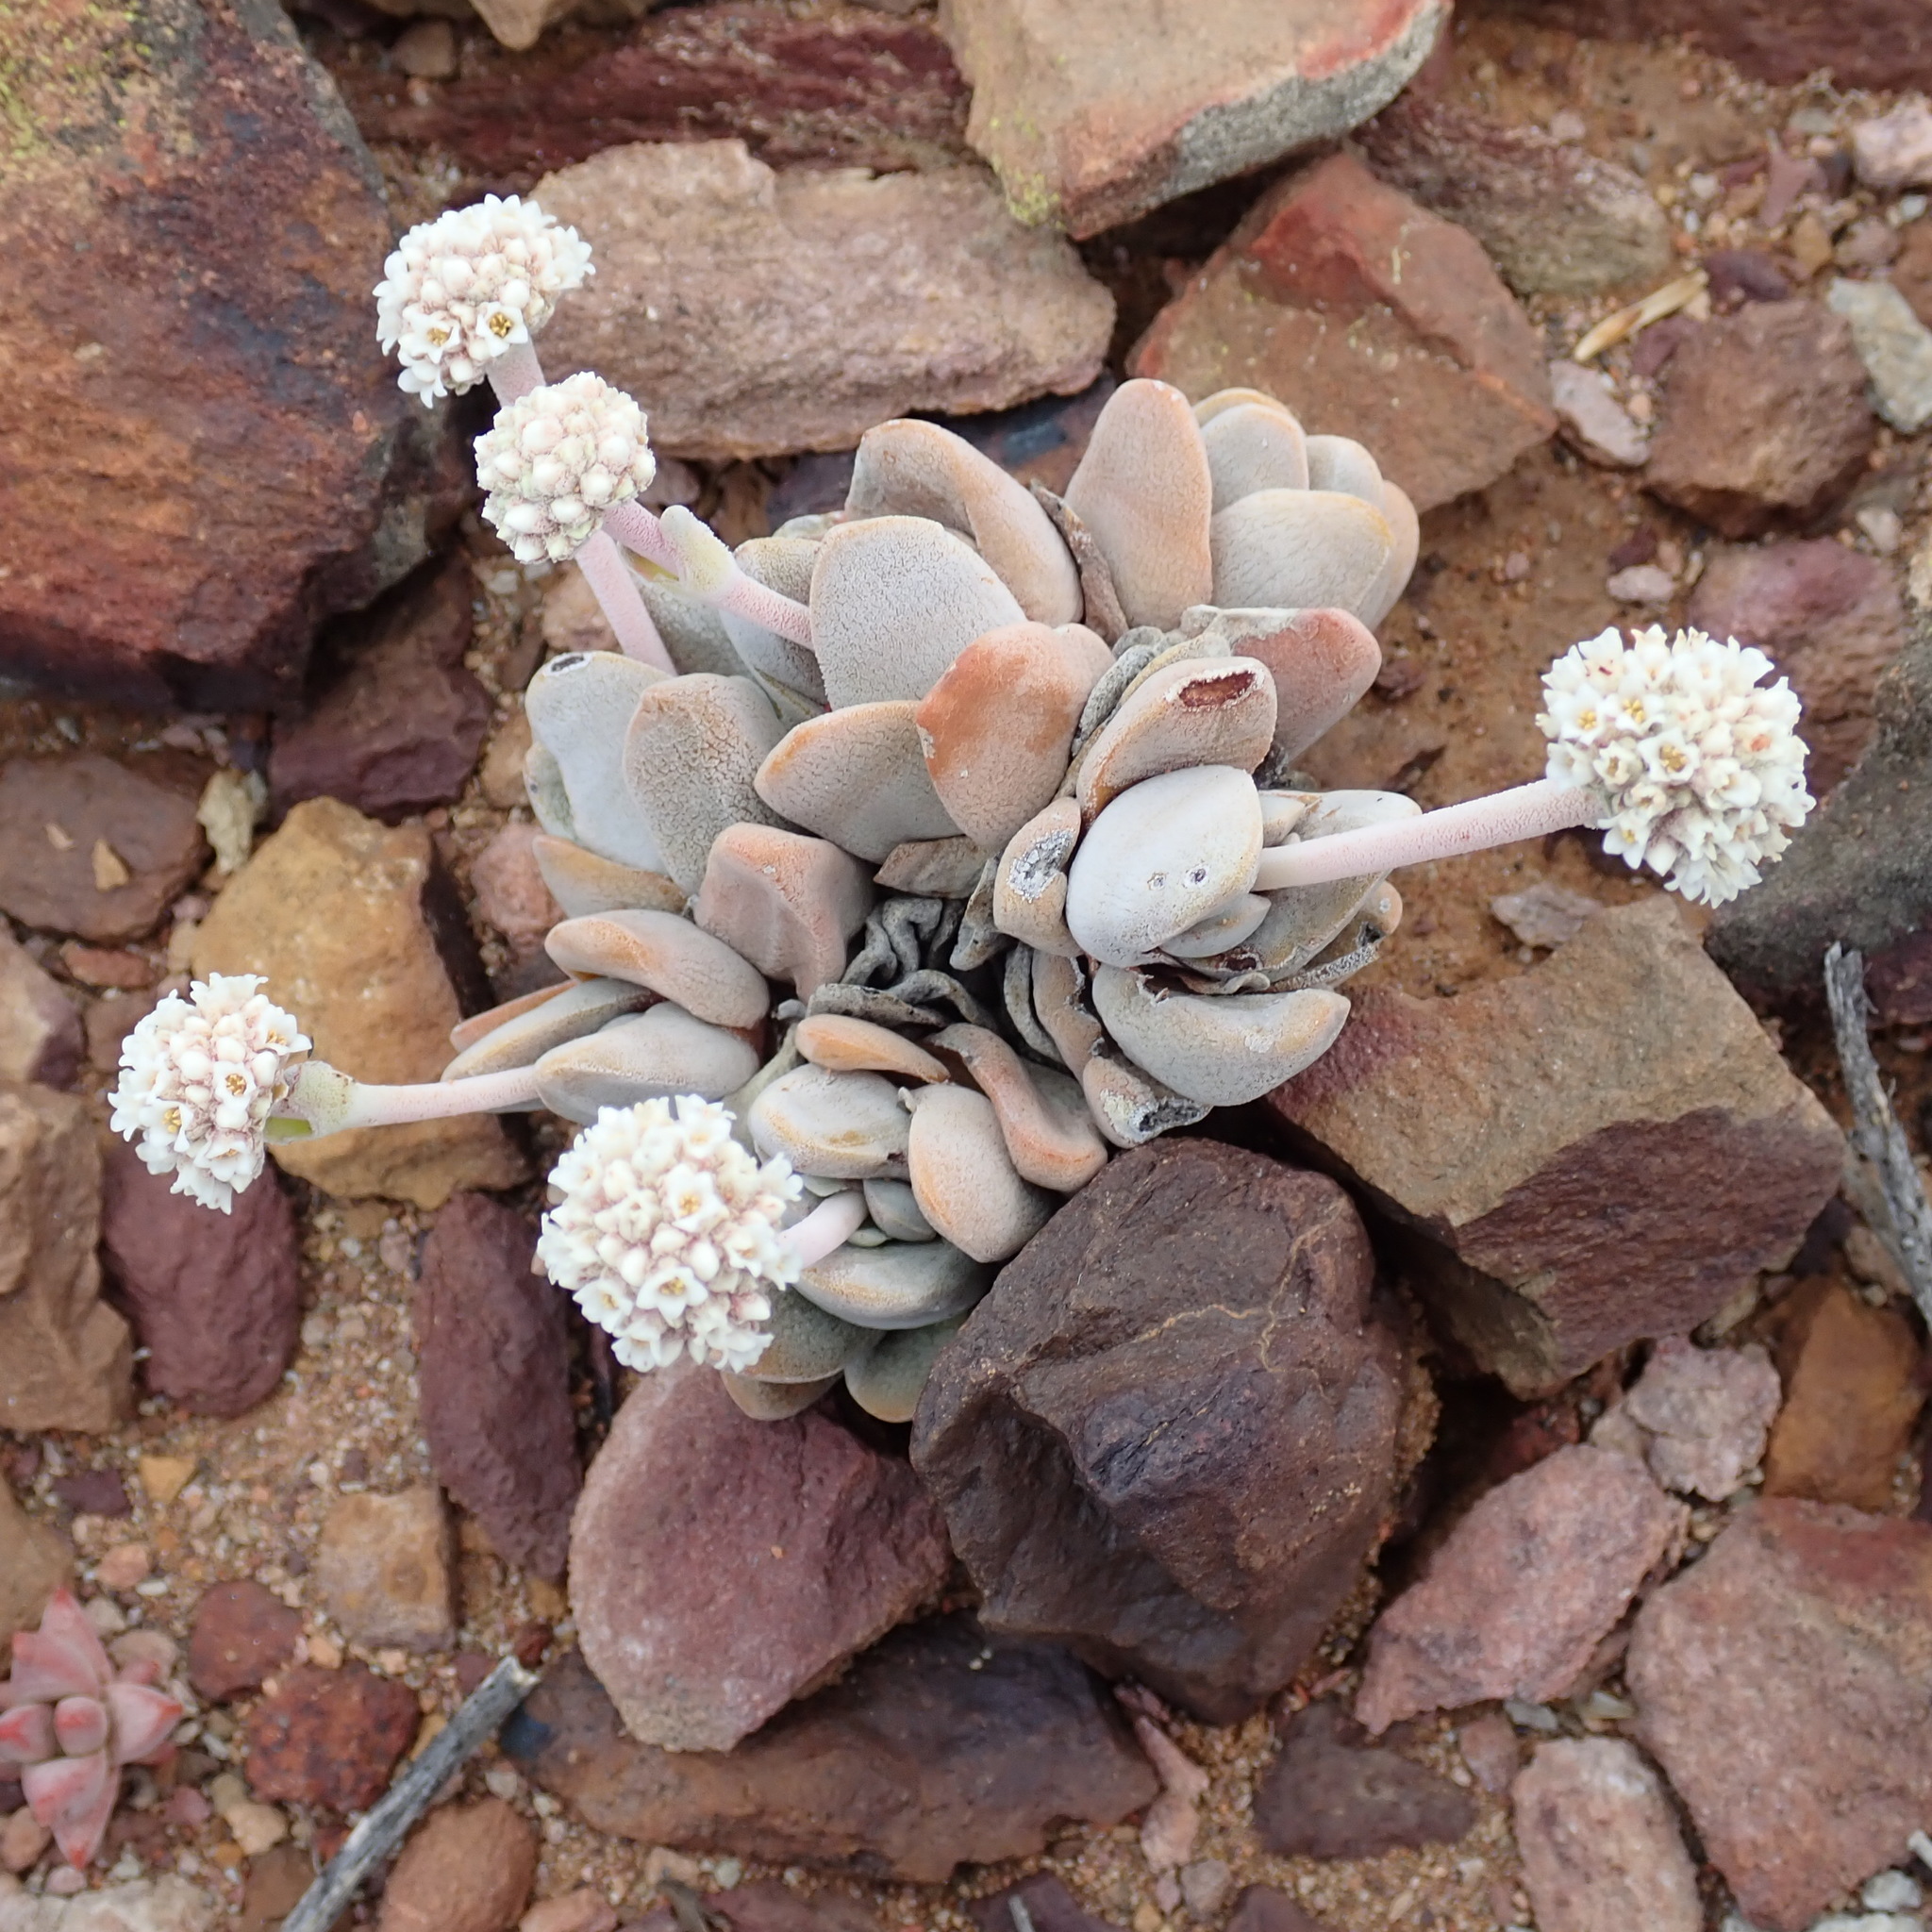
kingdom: Plantae
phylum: Tracheophyta
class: Magnoliopsida
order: Saxifragales
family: Crassulaceae
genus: Crassula
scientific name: Crassula tecta
